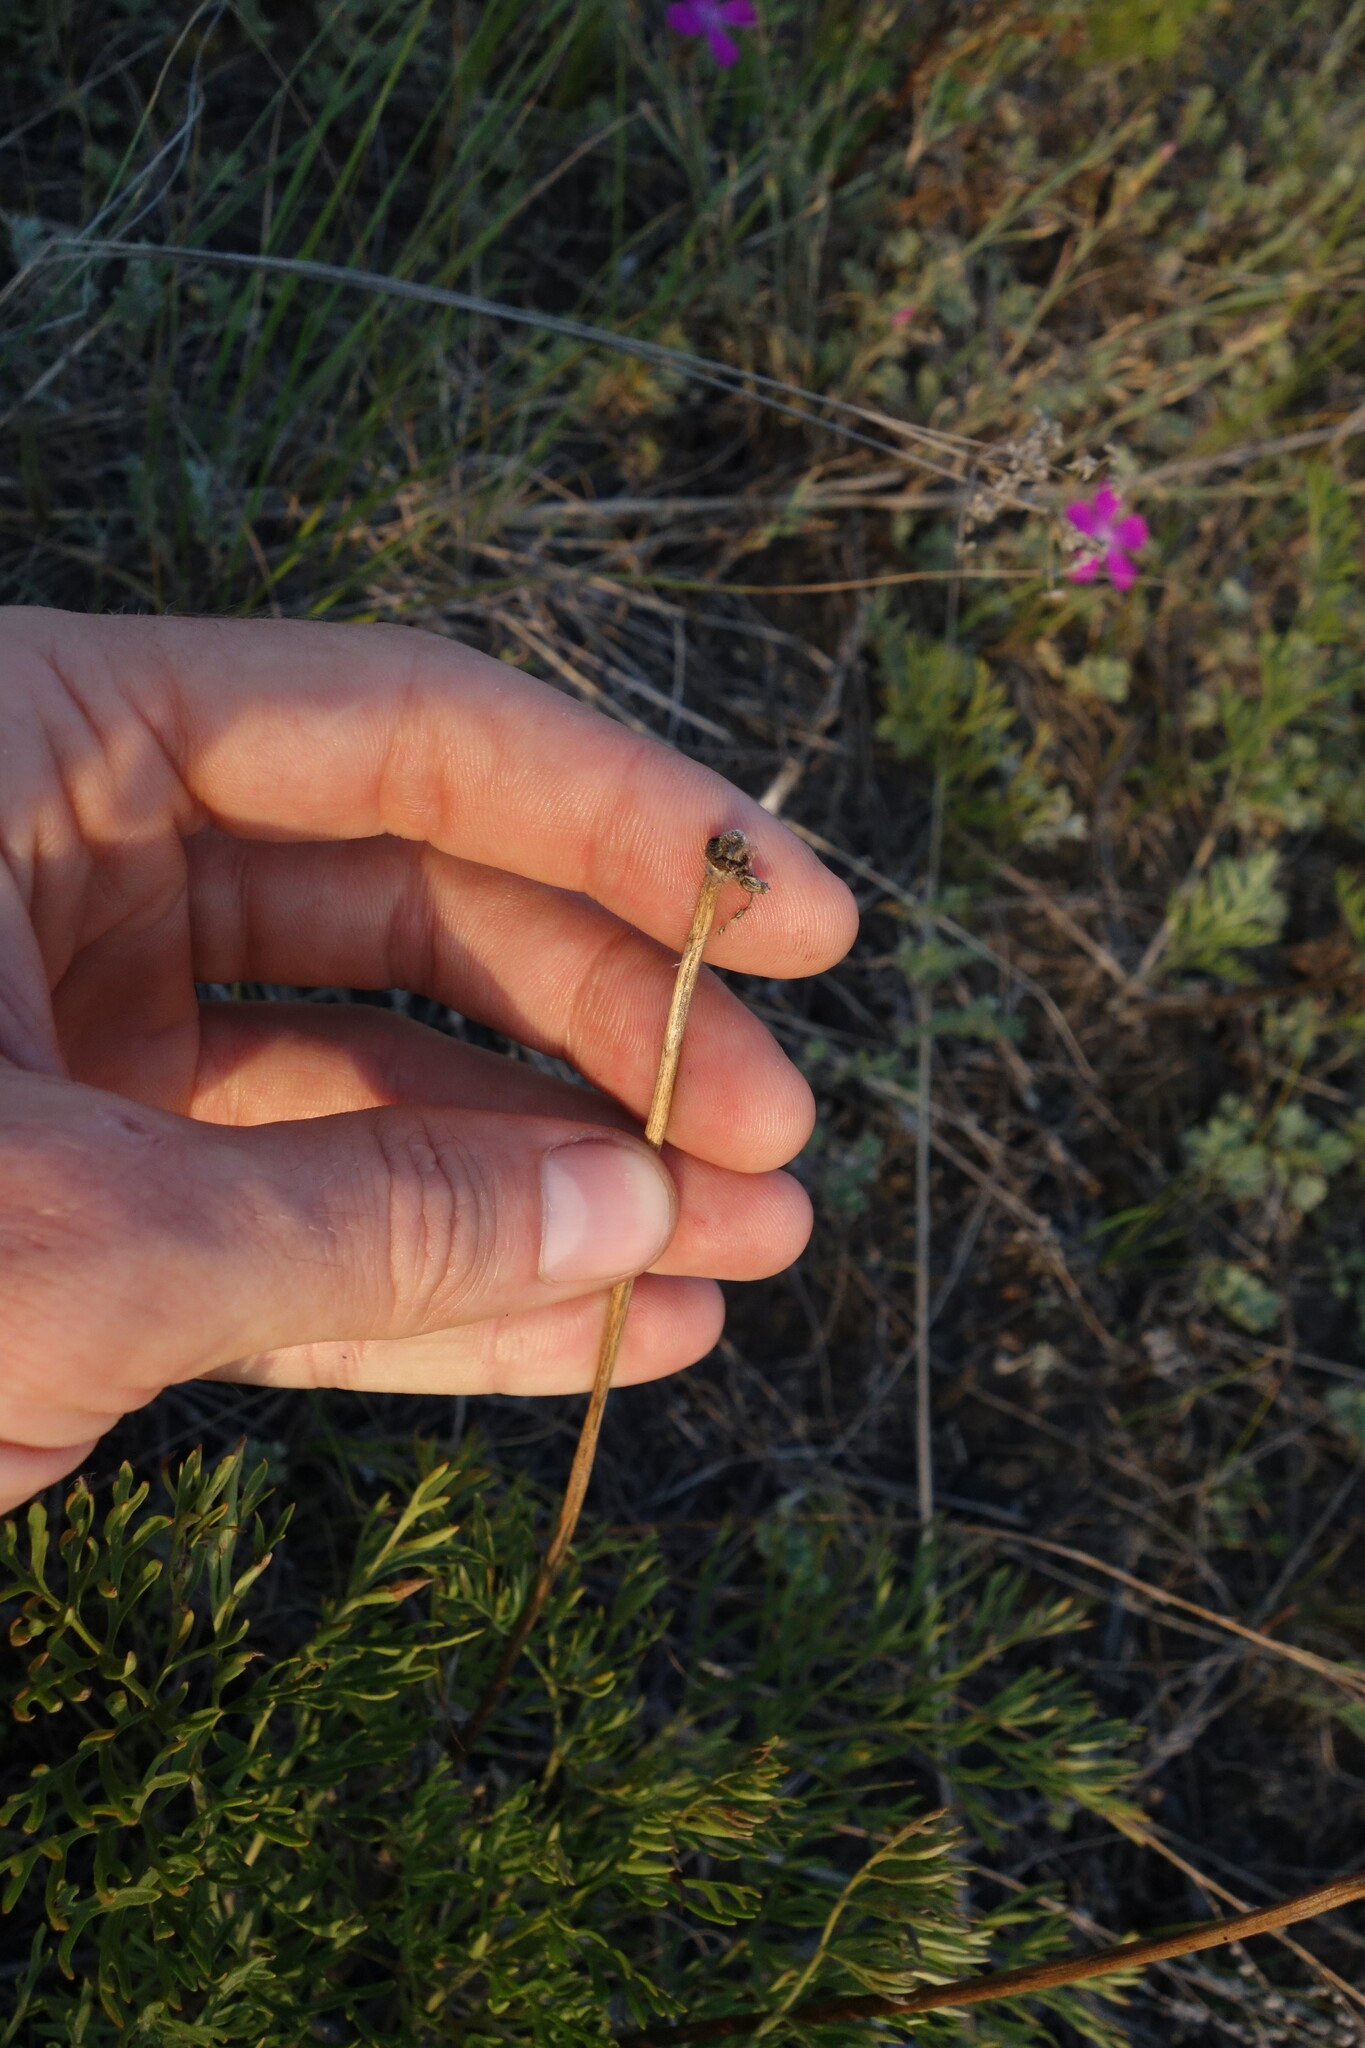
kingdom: Plantae
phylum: Tracheophyta
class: Magnoliopsida
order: Ranunculales
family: Ranunculaceae
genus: Pulsatilla
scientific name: Pulsatilla turczaninovii
